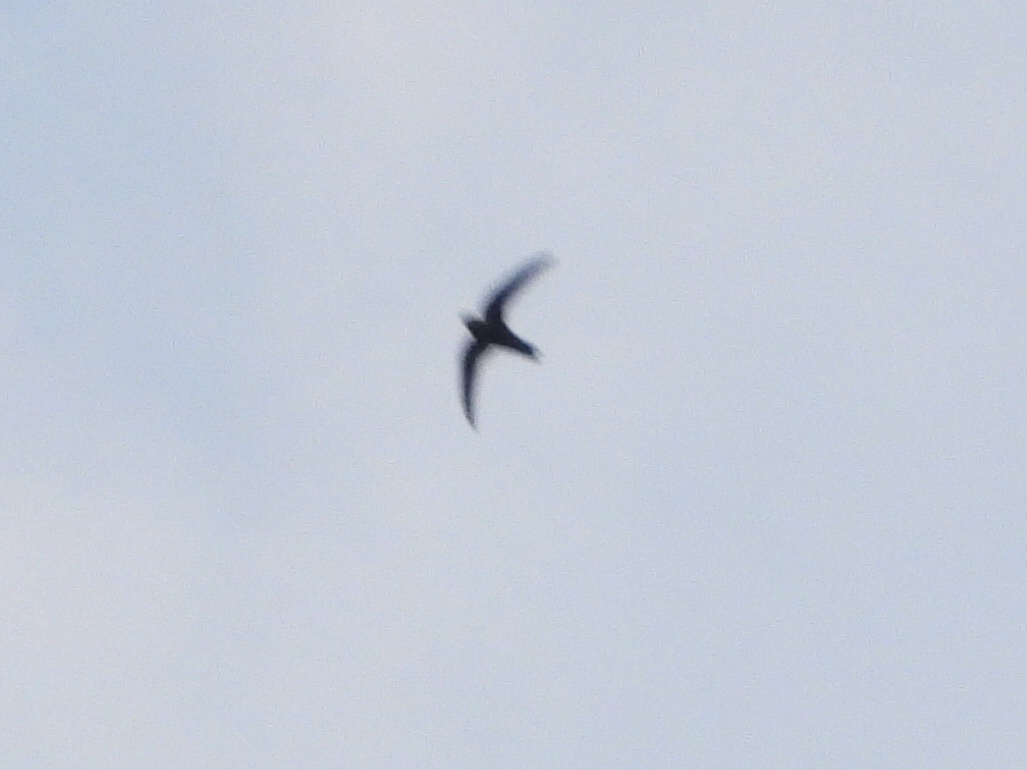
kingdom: Animalia
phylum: Chordata
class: Aves
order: Apodiformes
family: Apodidae
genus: Cypseloides
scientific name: Cypseloides niger
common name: Black swift
